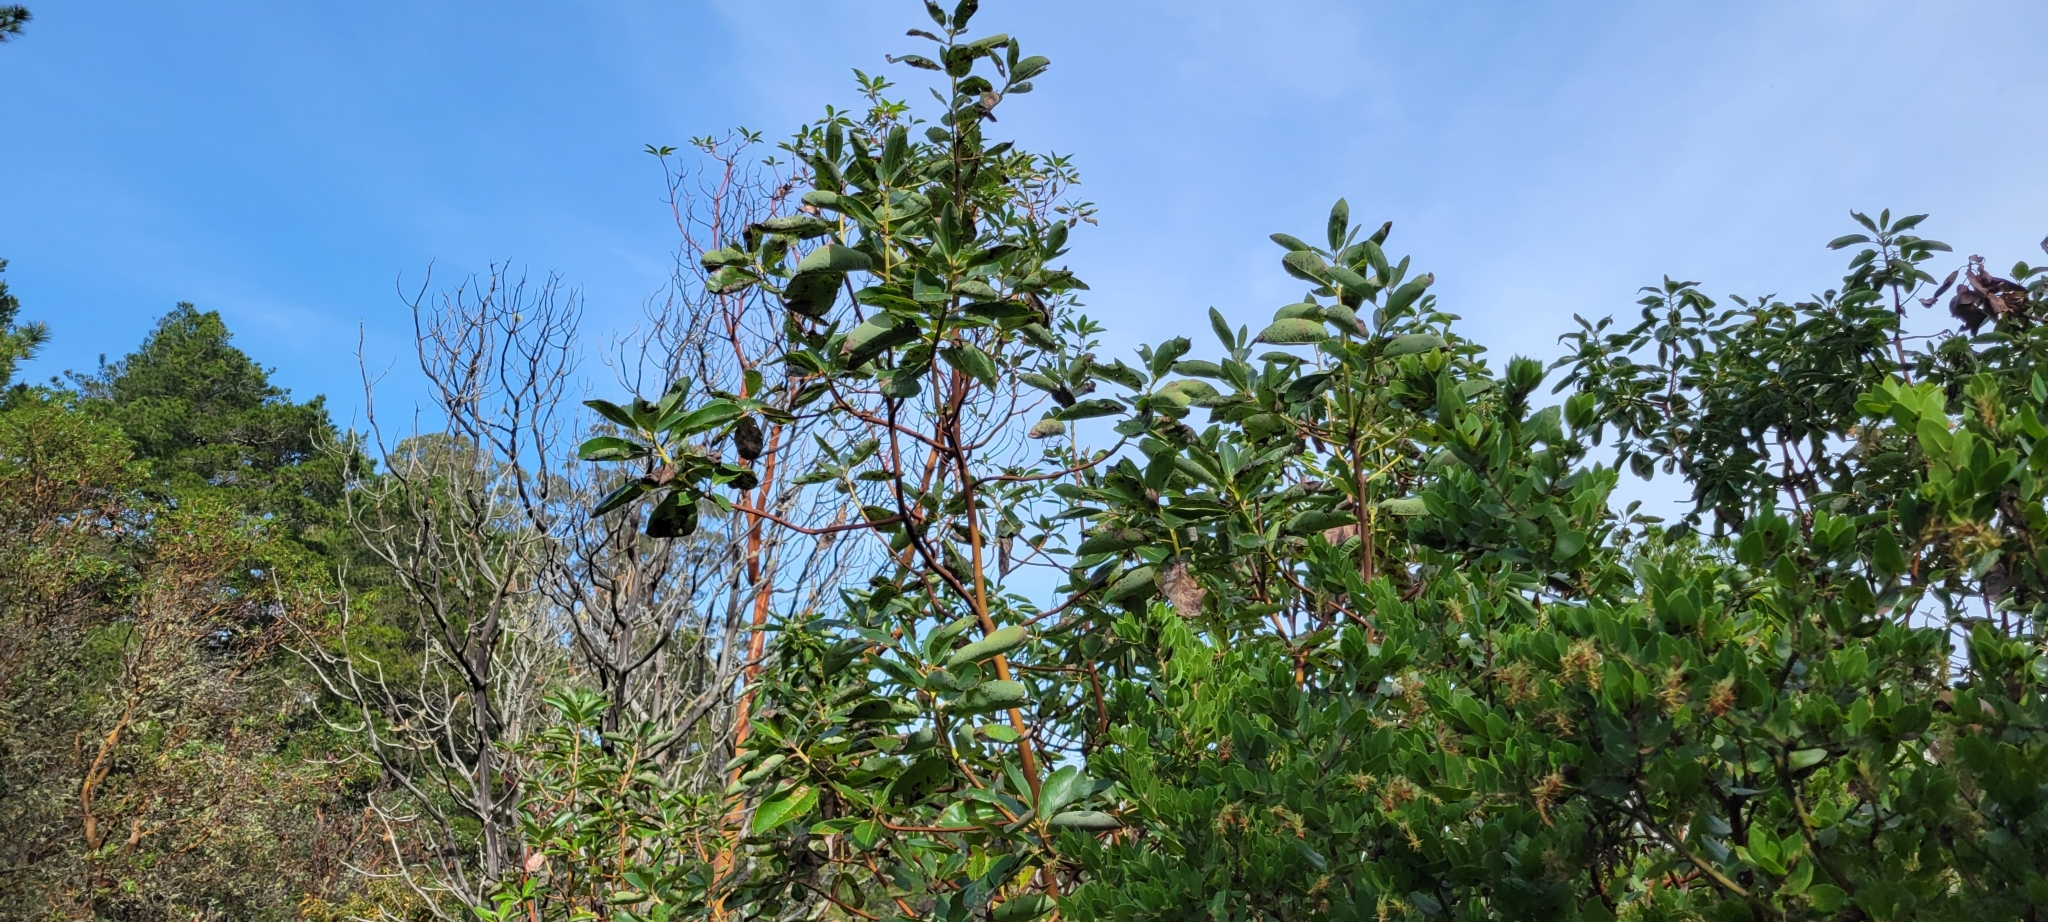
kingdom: Plantae
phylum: Tracheophyta
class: Magnoliopsida
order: Ericales
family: Ericaceae
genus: Arbutus
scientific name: Arbutus menziesii
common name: Pacific madrone
